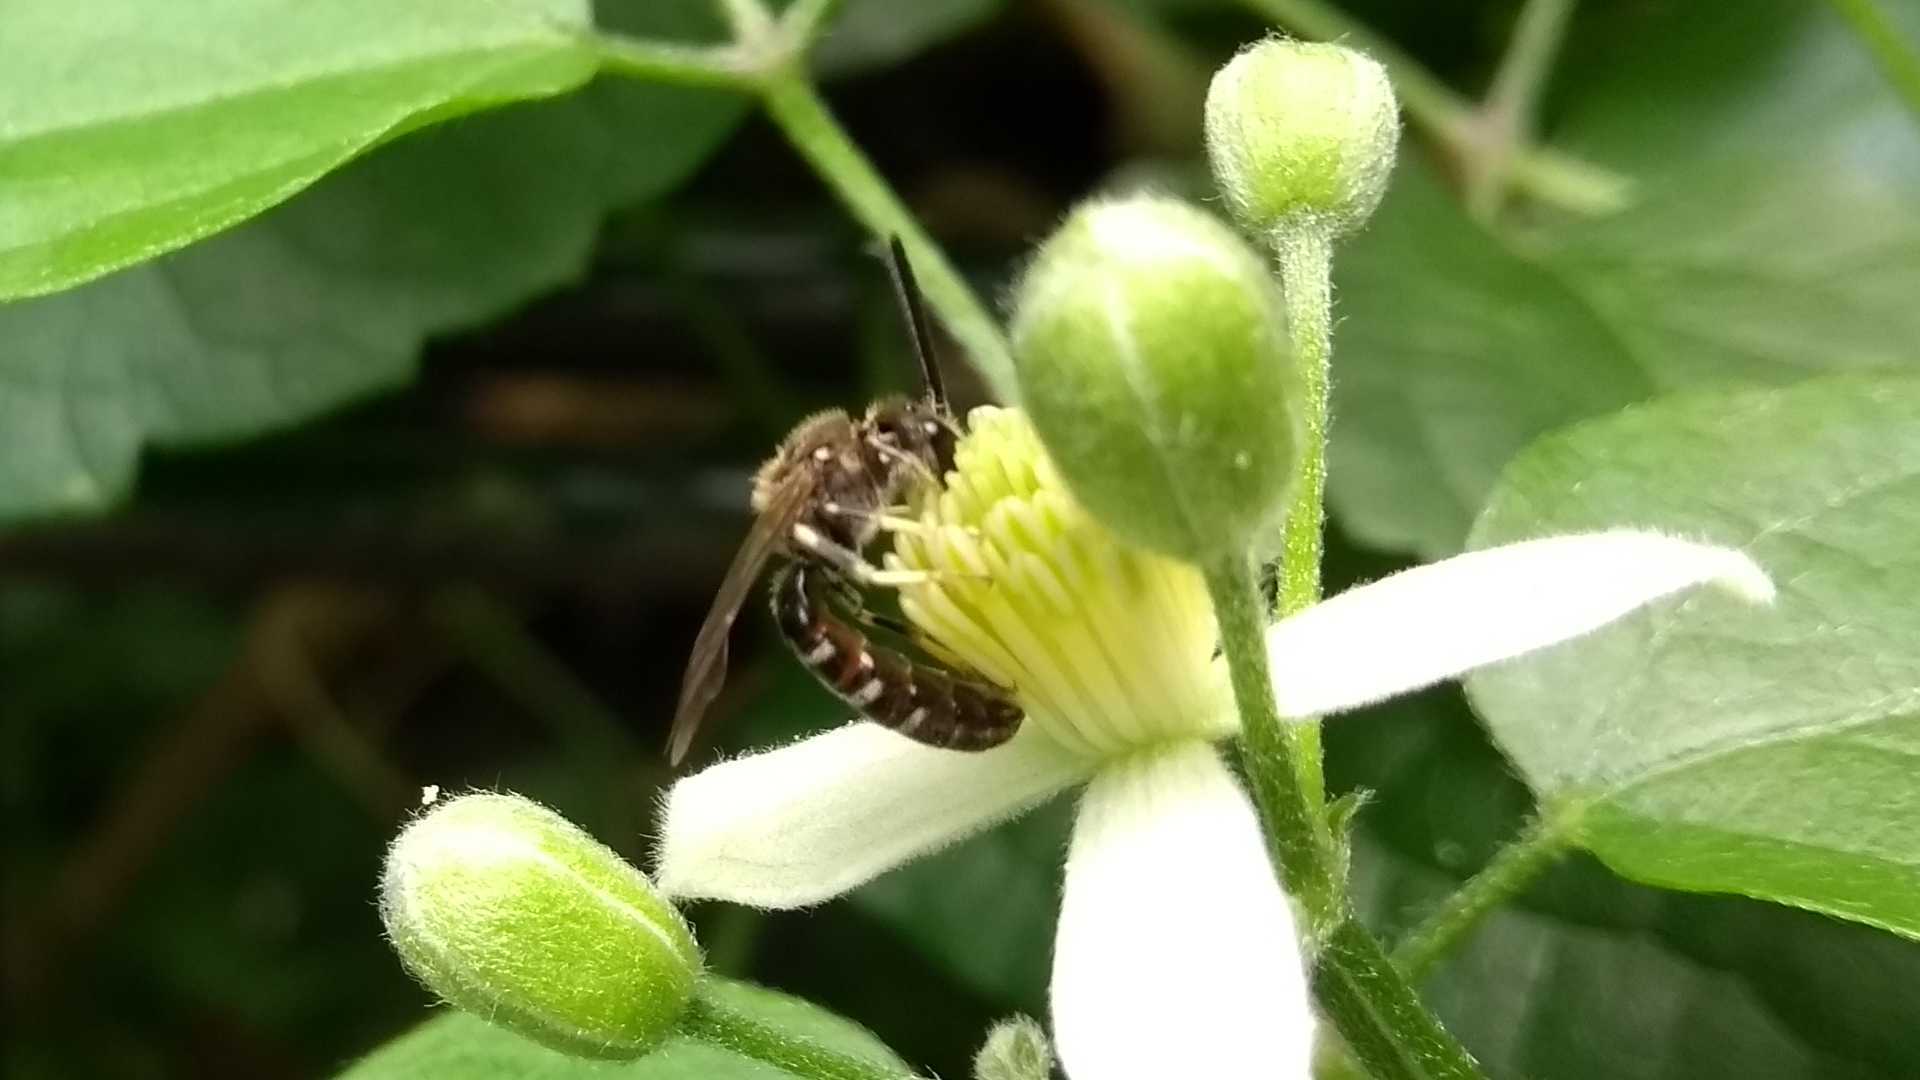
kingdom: Animalia
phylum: Arthropoda
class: Insecta
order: Hymenoptera
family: Halictidae
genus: Lasioglossum
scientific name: Lasioglossum
